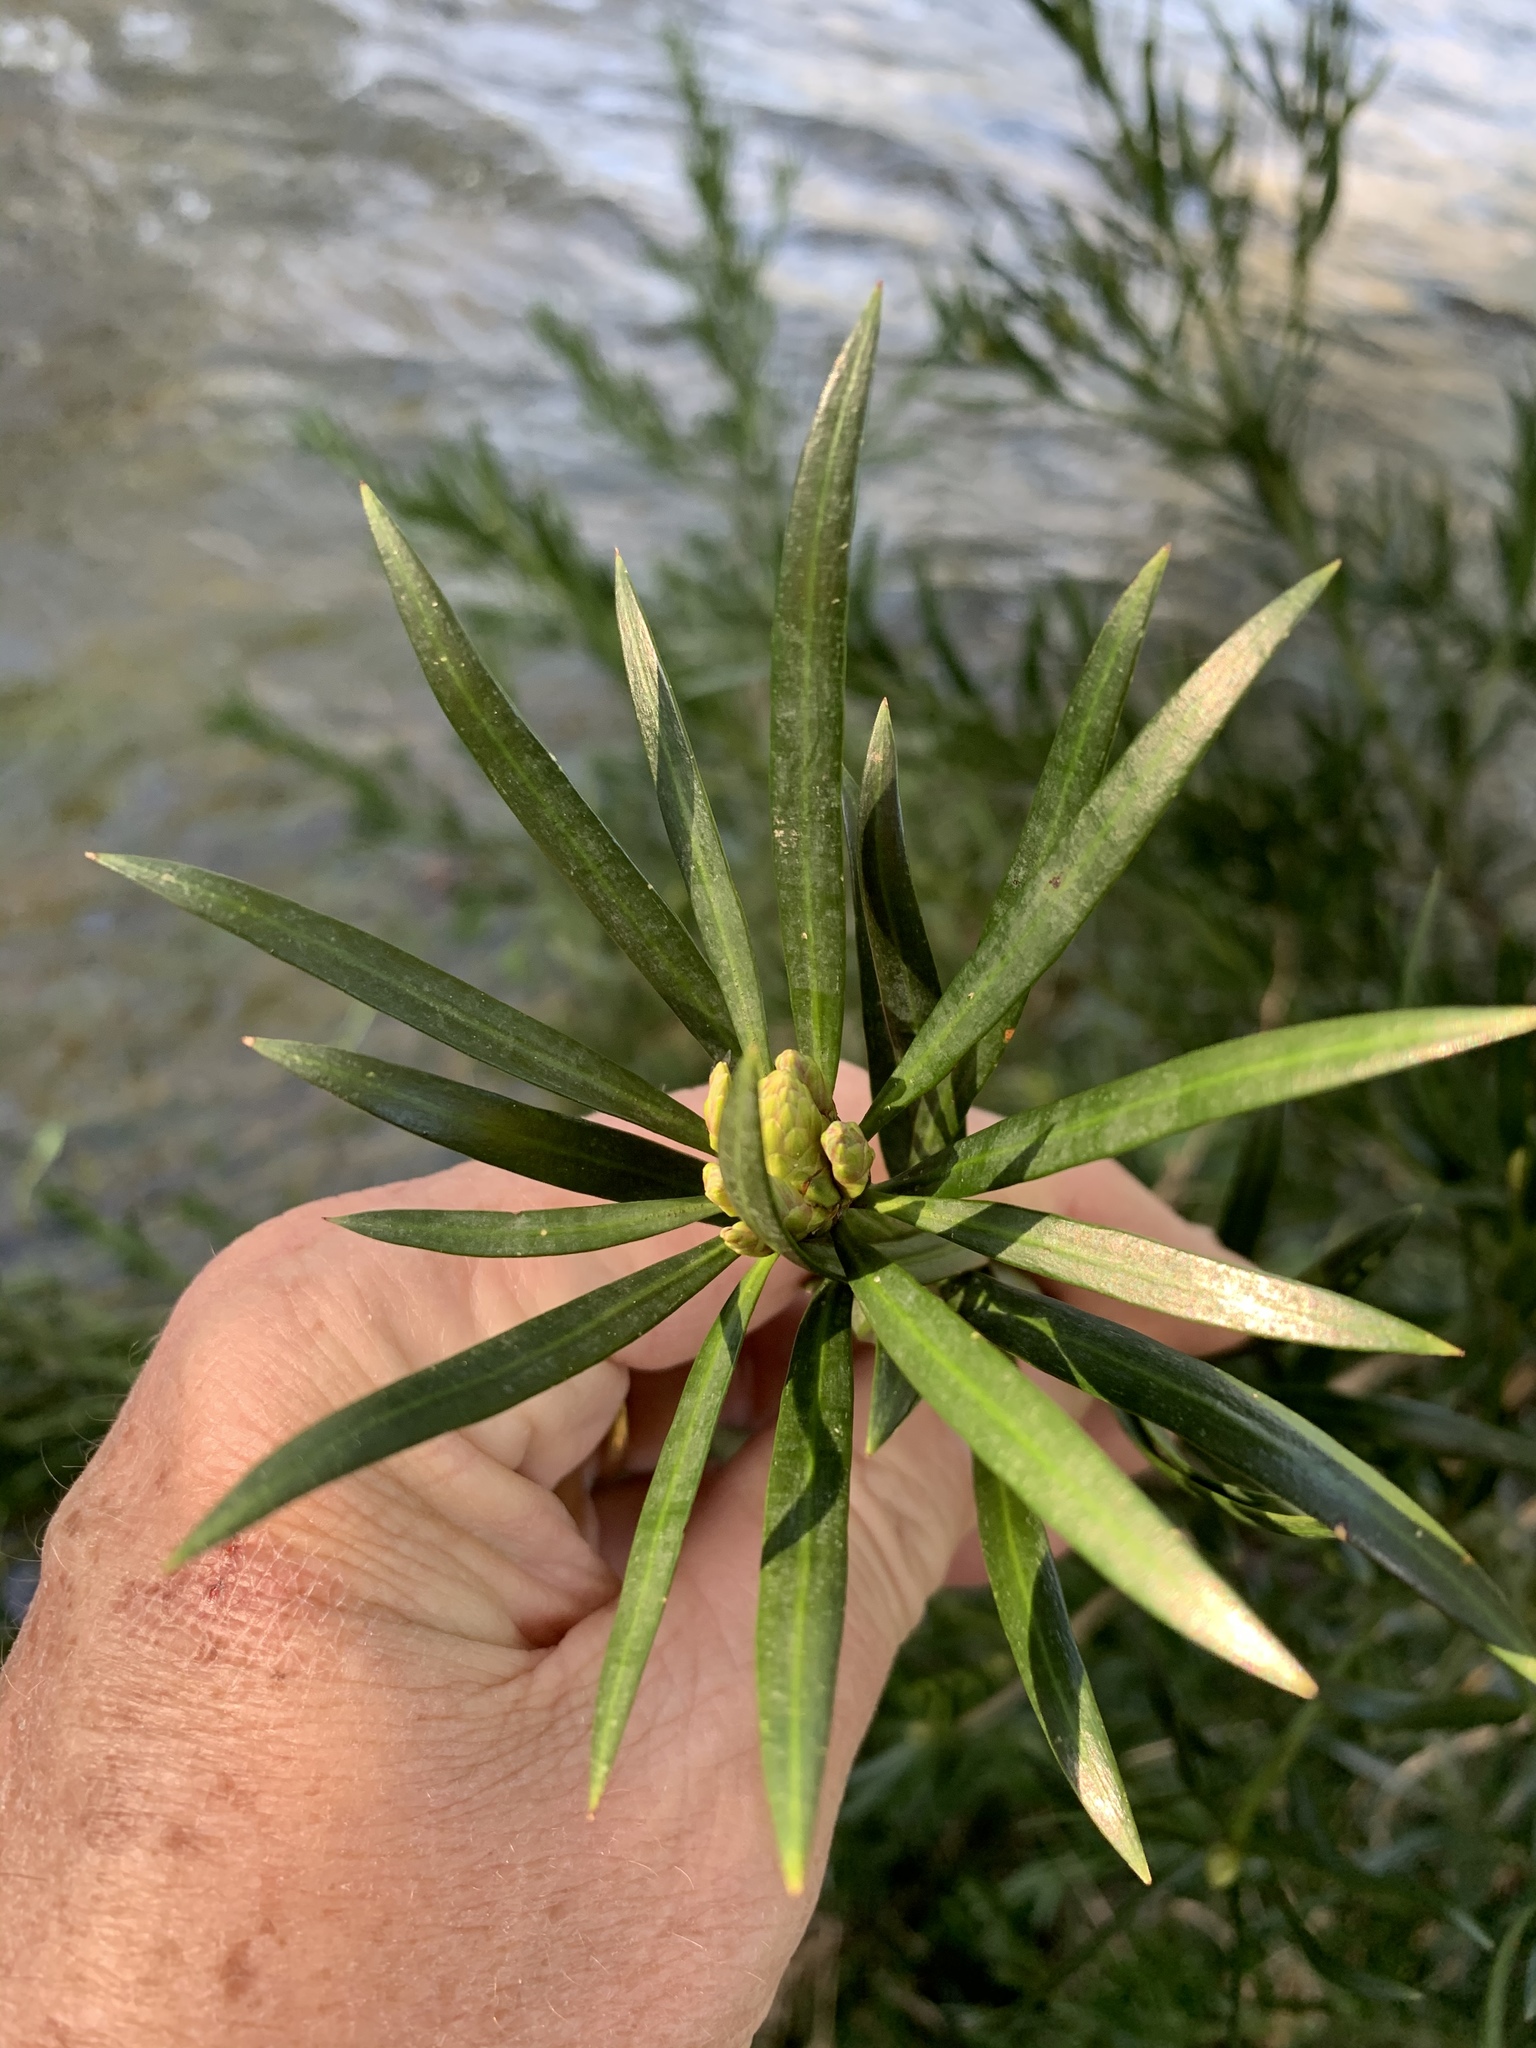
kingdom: Plantae
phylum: Tracheophyta
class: Pinopsida
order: Pinales
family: Podocarpaceae
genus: Podocarpus
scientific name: Podocarpus elongatus
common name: Breede river yellowwood
